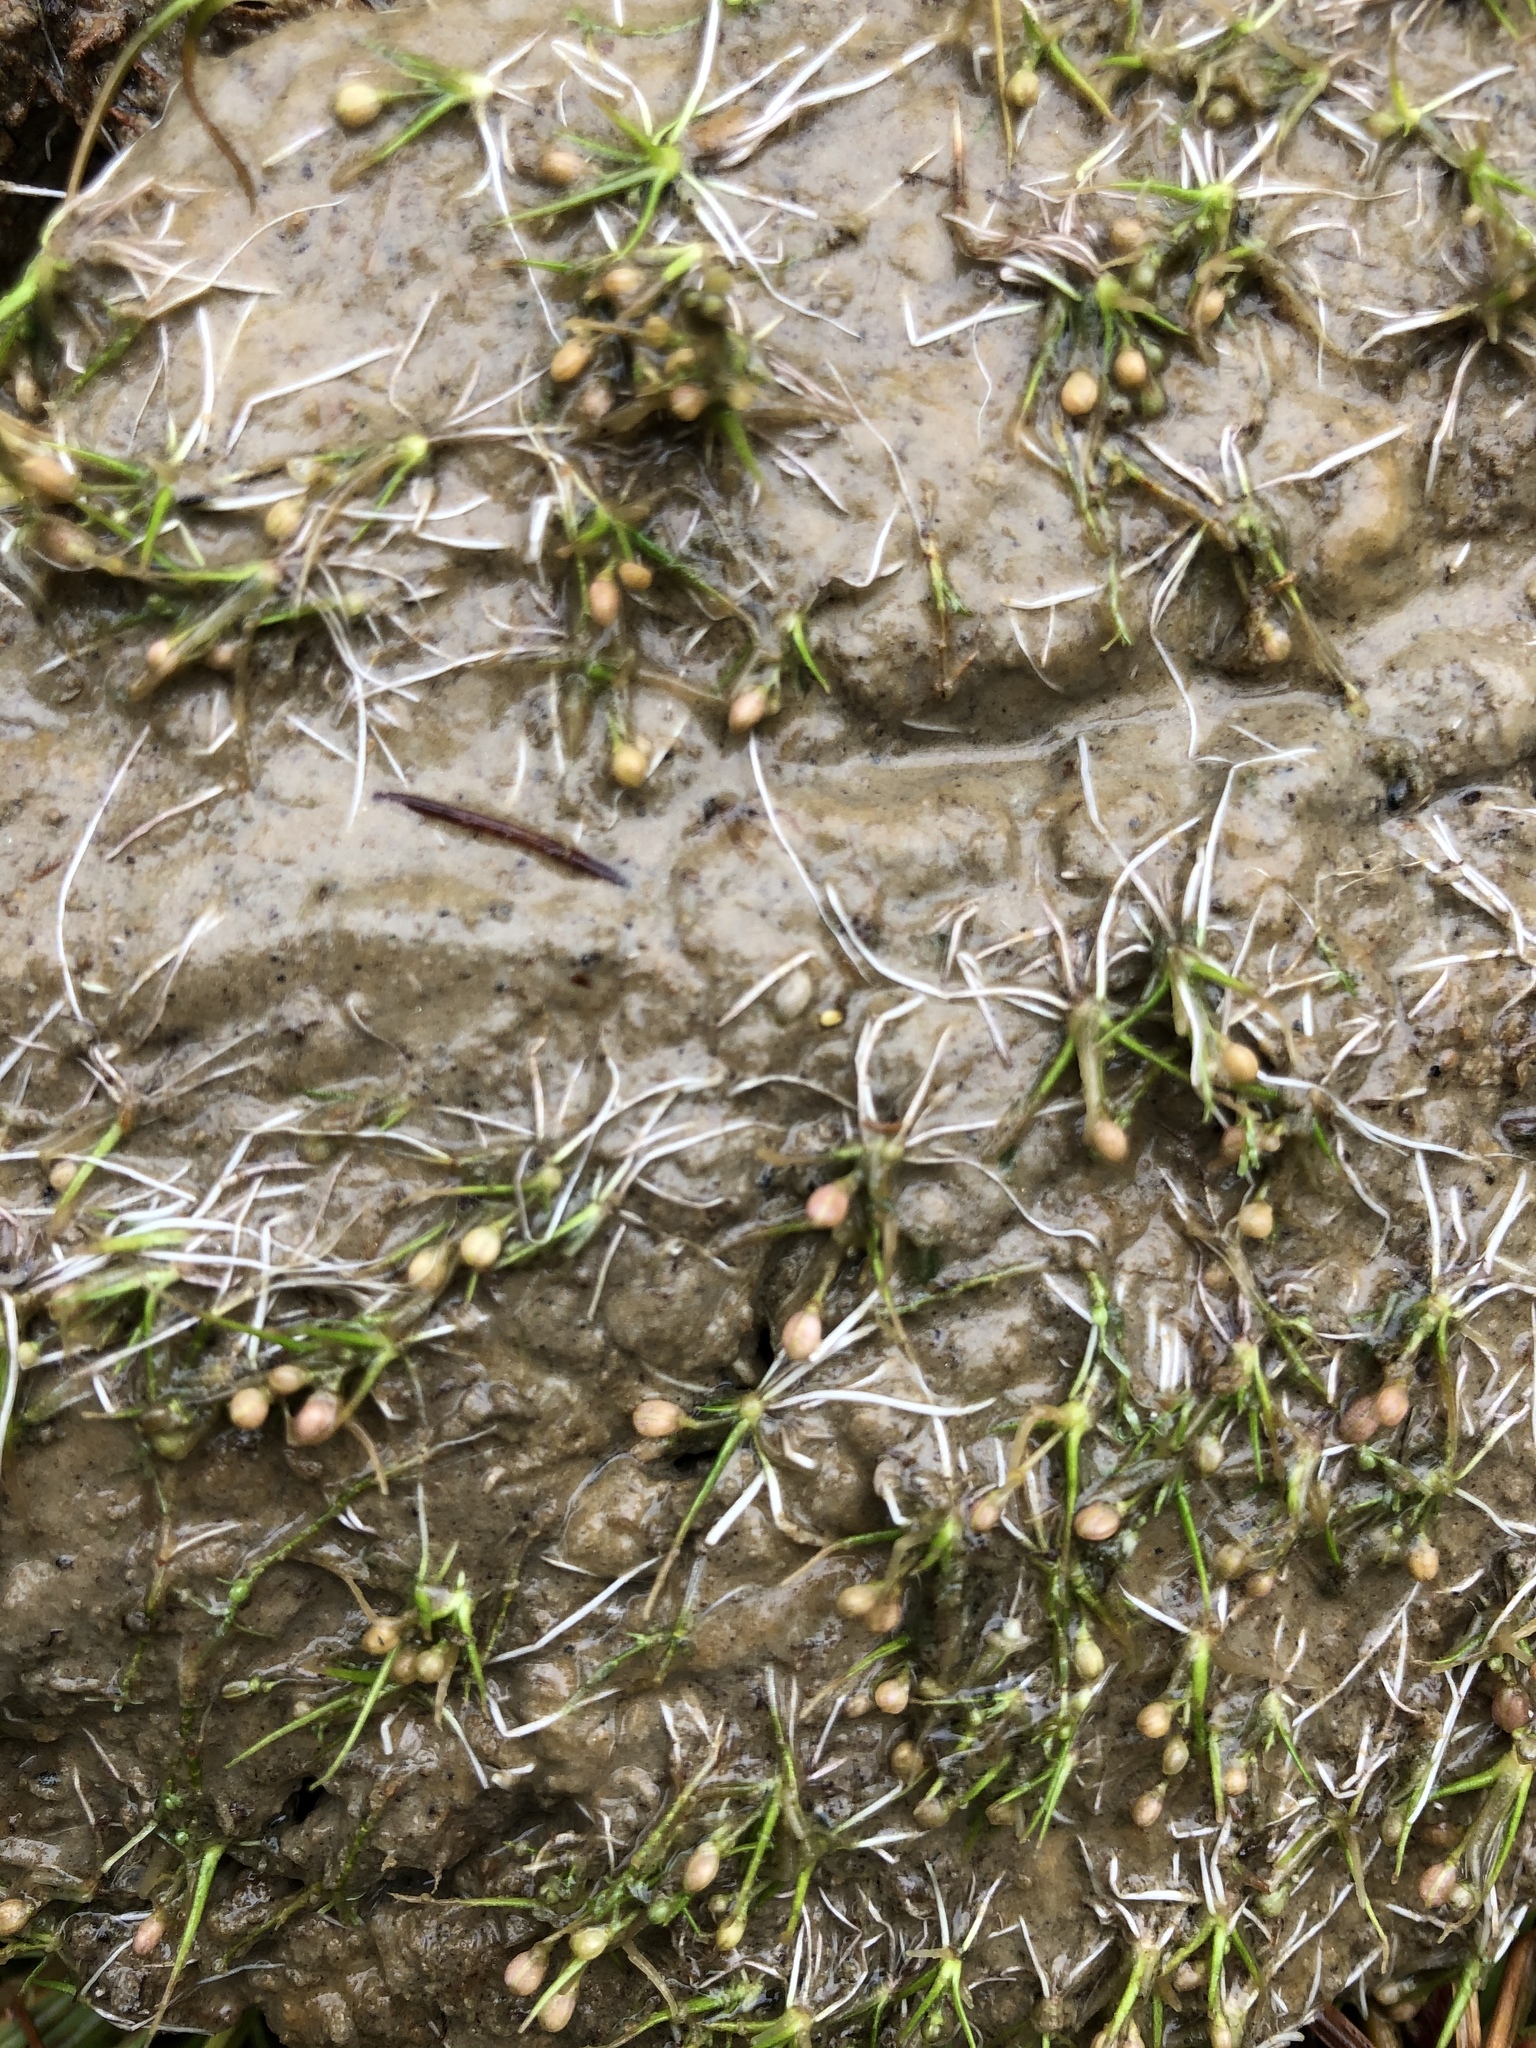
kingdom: Plantae
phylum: Tracheophyta
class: Magnoliopsida
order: Brassicales
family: Brassicaceae
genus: Subularia
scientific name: Subularia aquatica
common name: Awlwort
